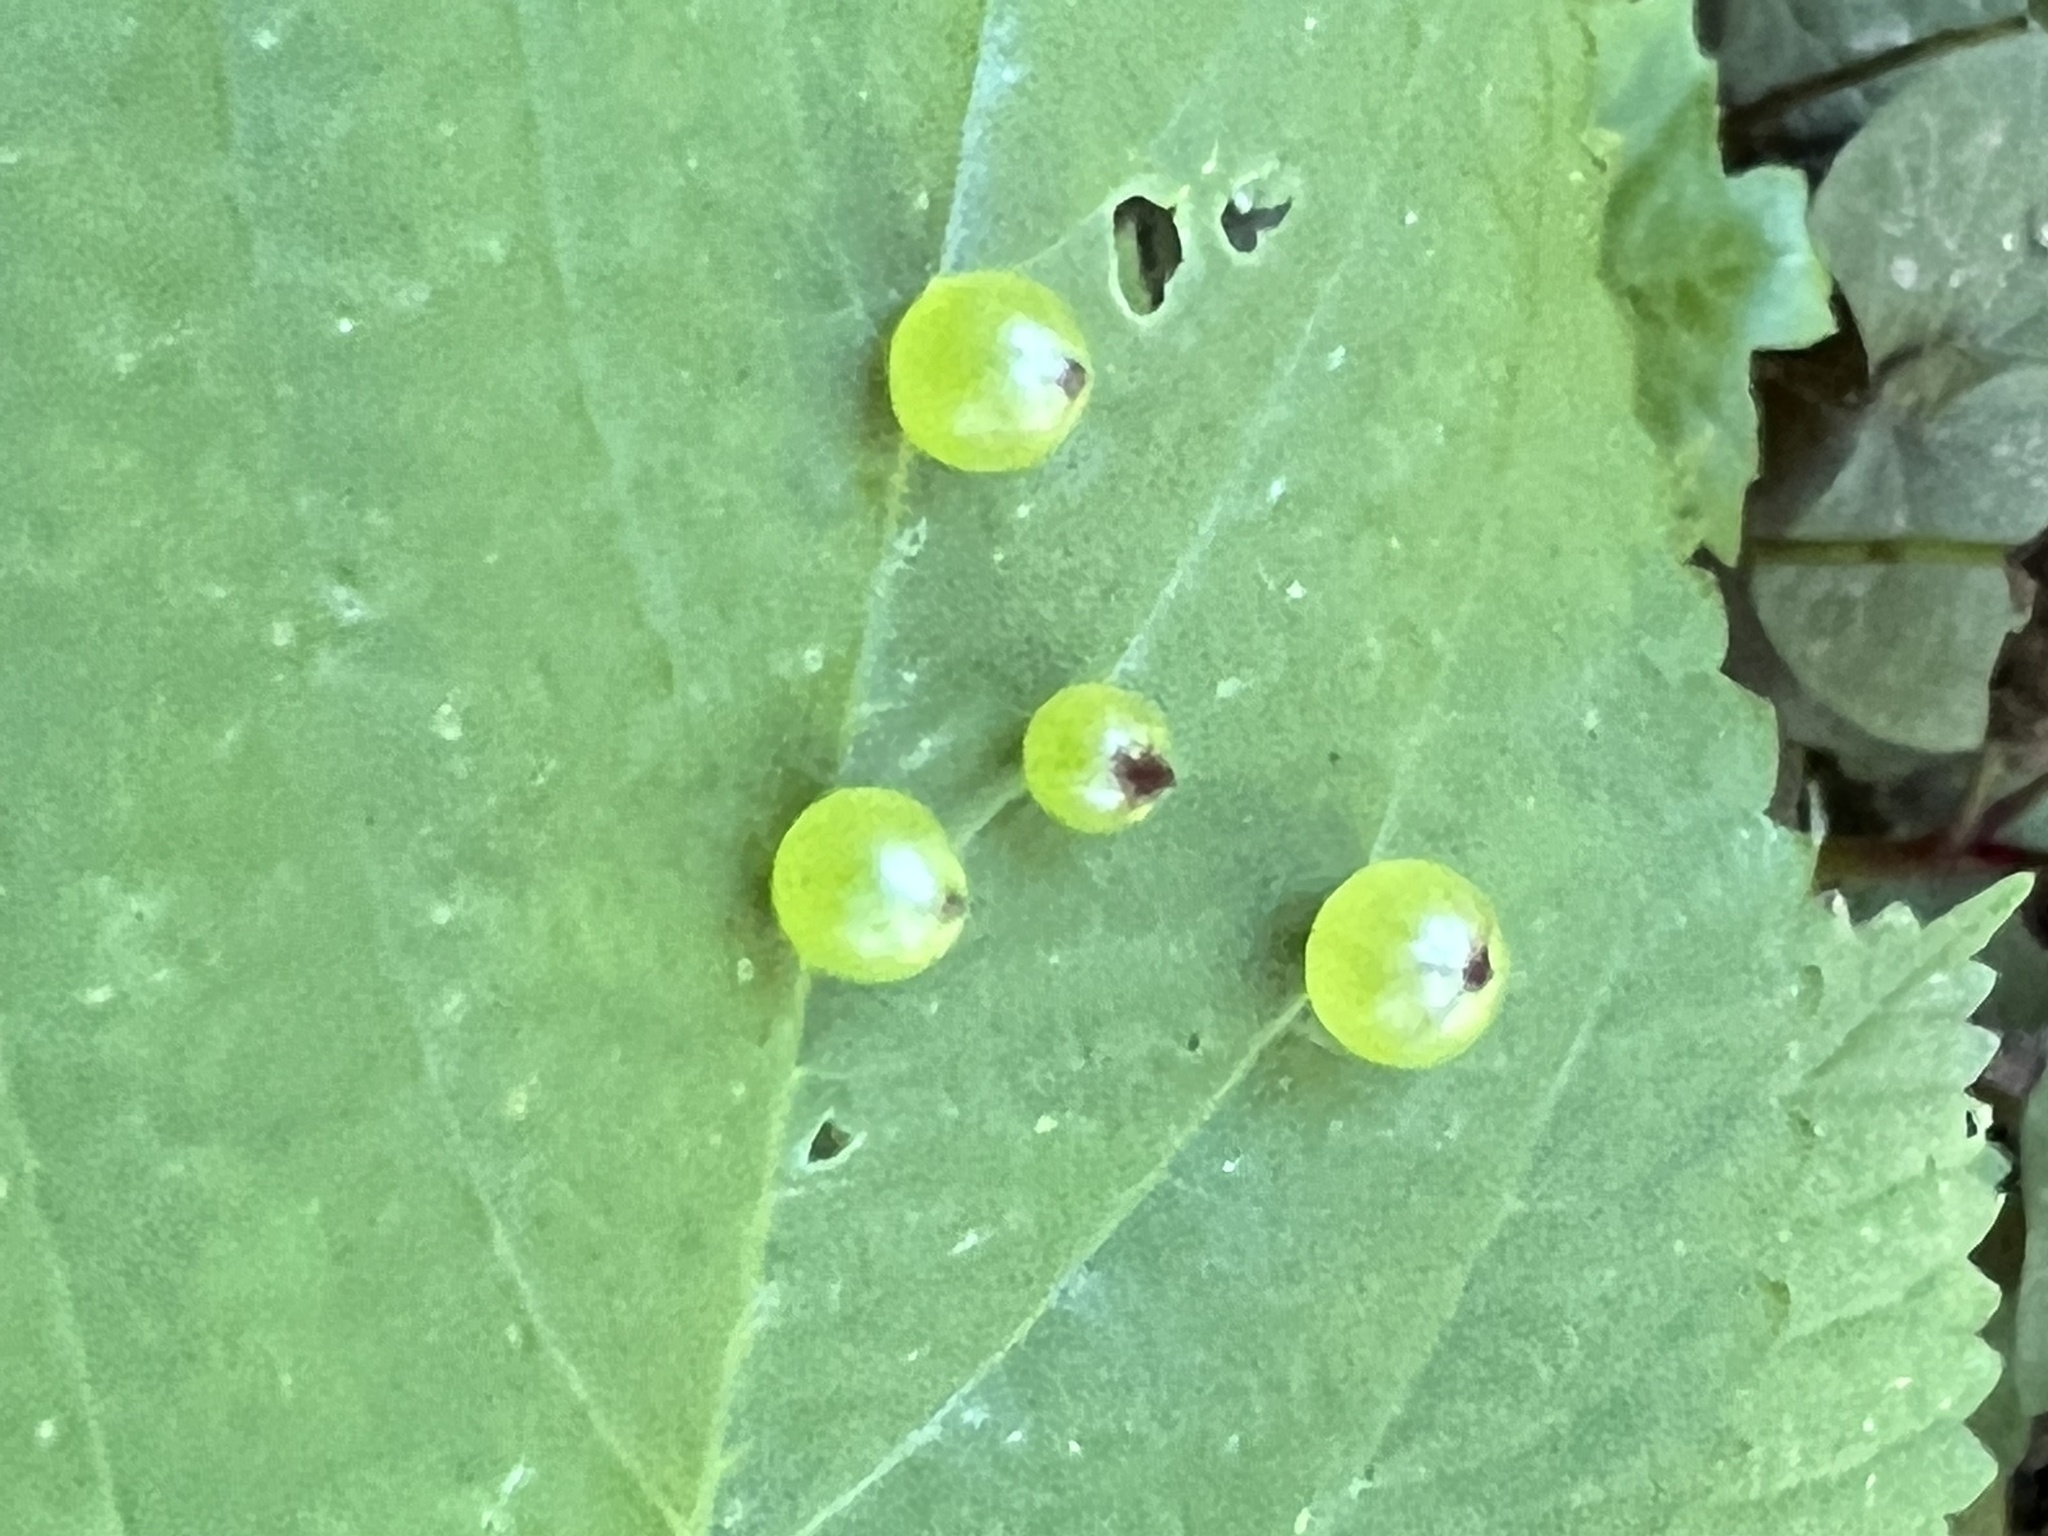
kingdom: Animalia
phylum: Arthropoda
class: Insecta
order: Diptera
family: Cecidomyiidae
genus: Dasineura
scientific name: Dasineura investita
